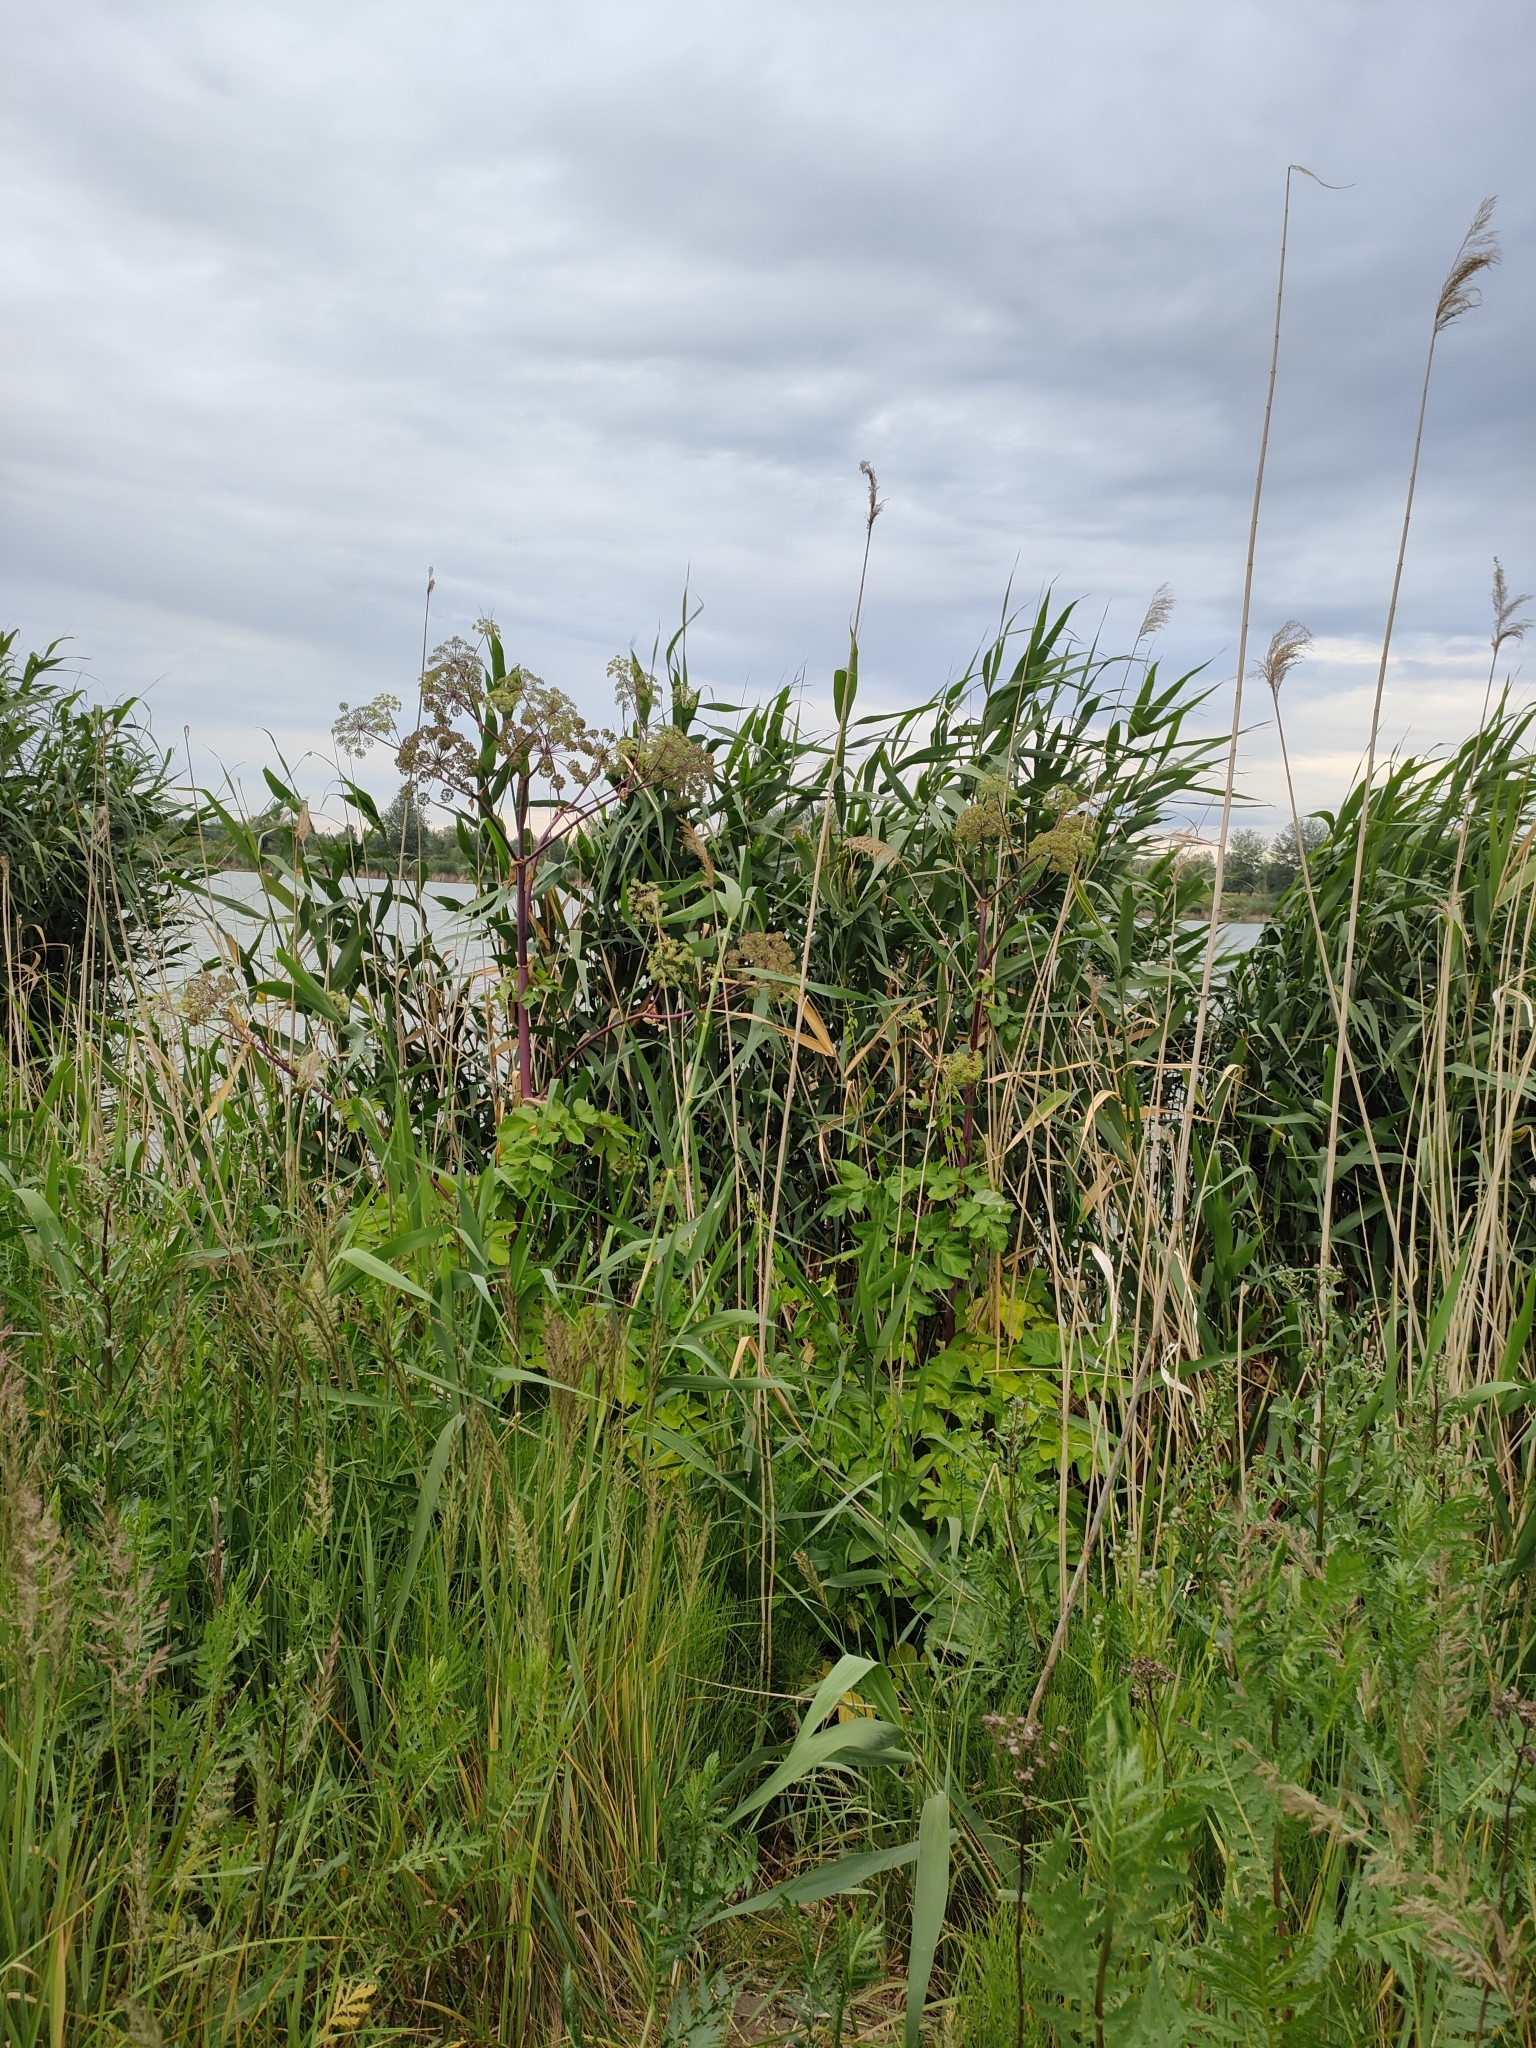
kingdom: Plantae
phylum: Tracheophyta
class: Magnoliopsida
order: Apiales
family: Apiaceae
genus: Angelica
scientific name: Angelica archangelica
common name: Garden angelica
